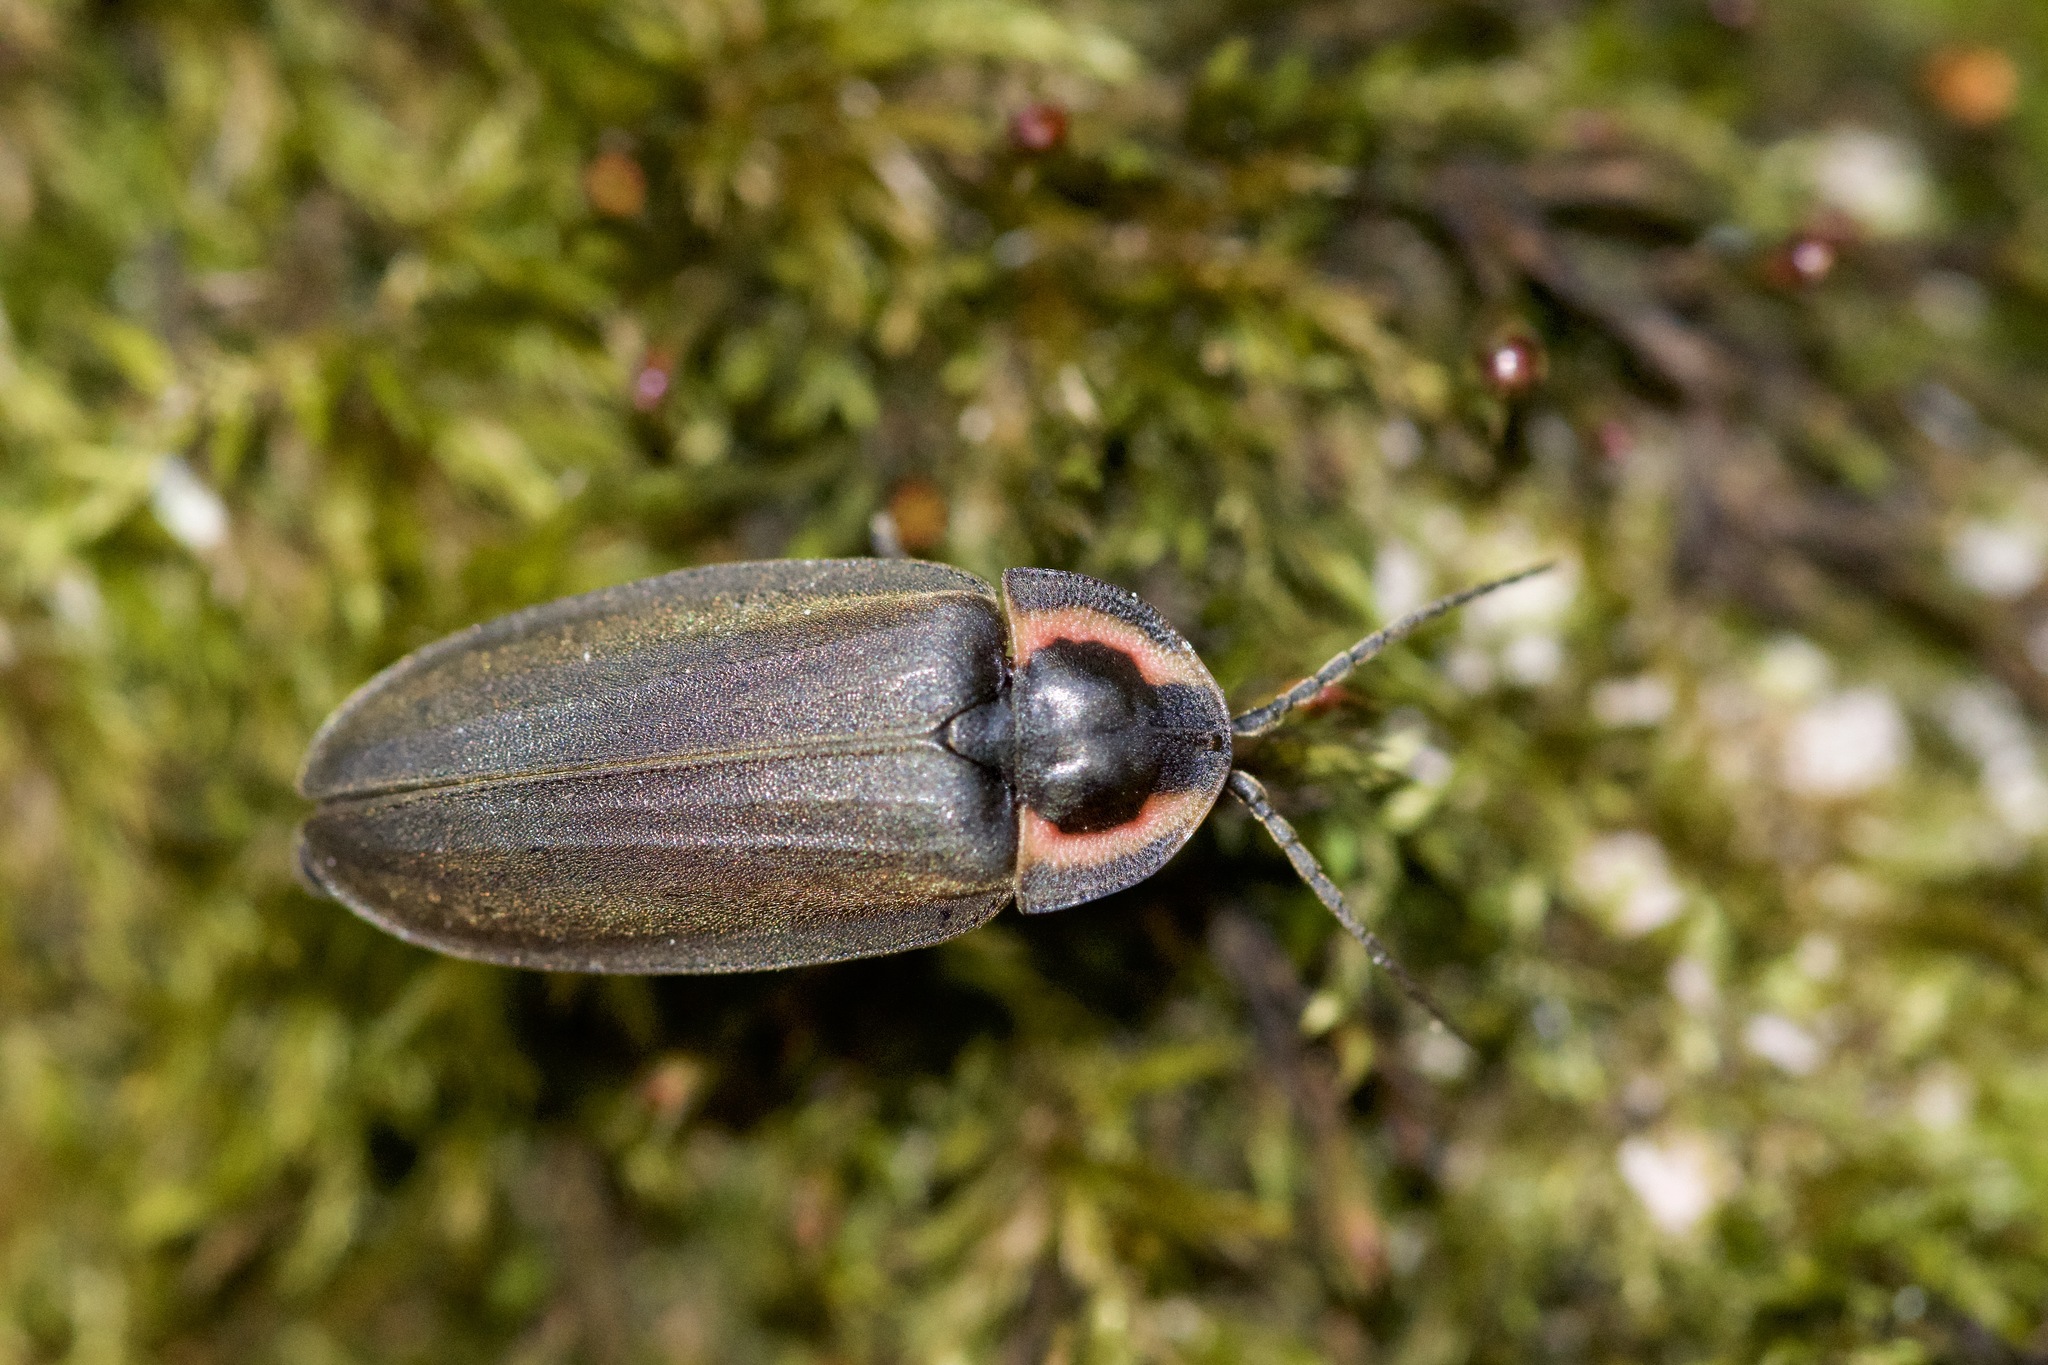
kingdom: Animalia
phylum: Arthropoda
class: Insecta
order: Coleoptera
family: Lampyridae
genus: Photinus
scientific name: Photinus corrusca
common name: Winter firefly
